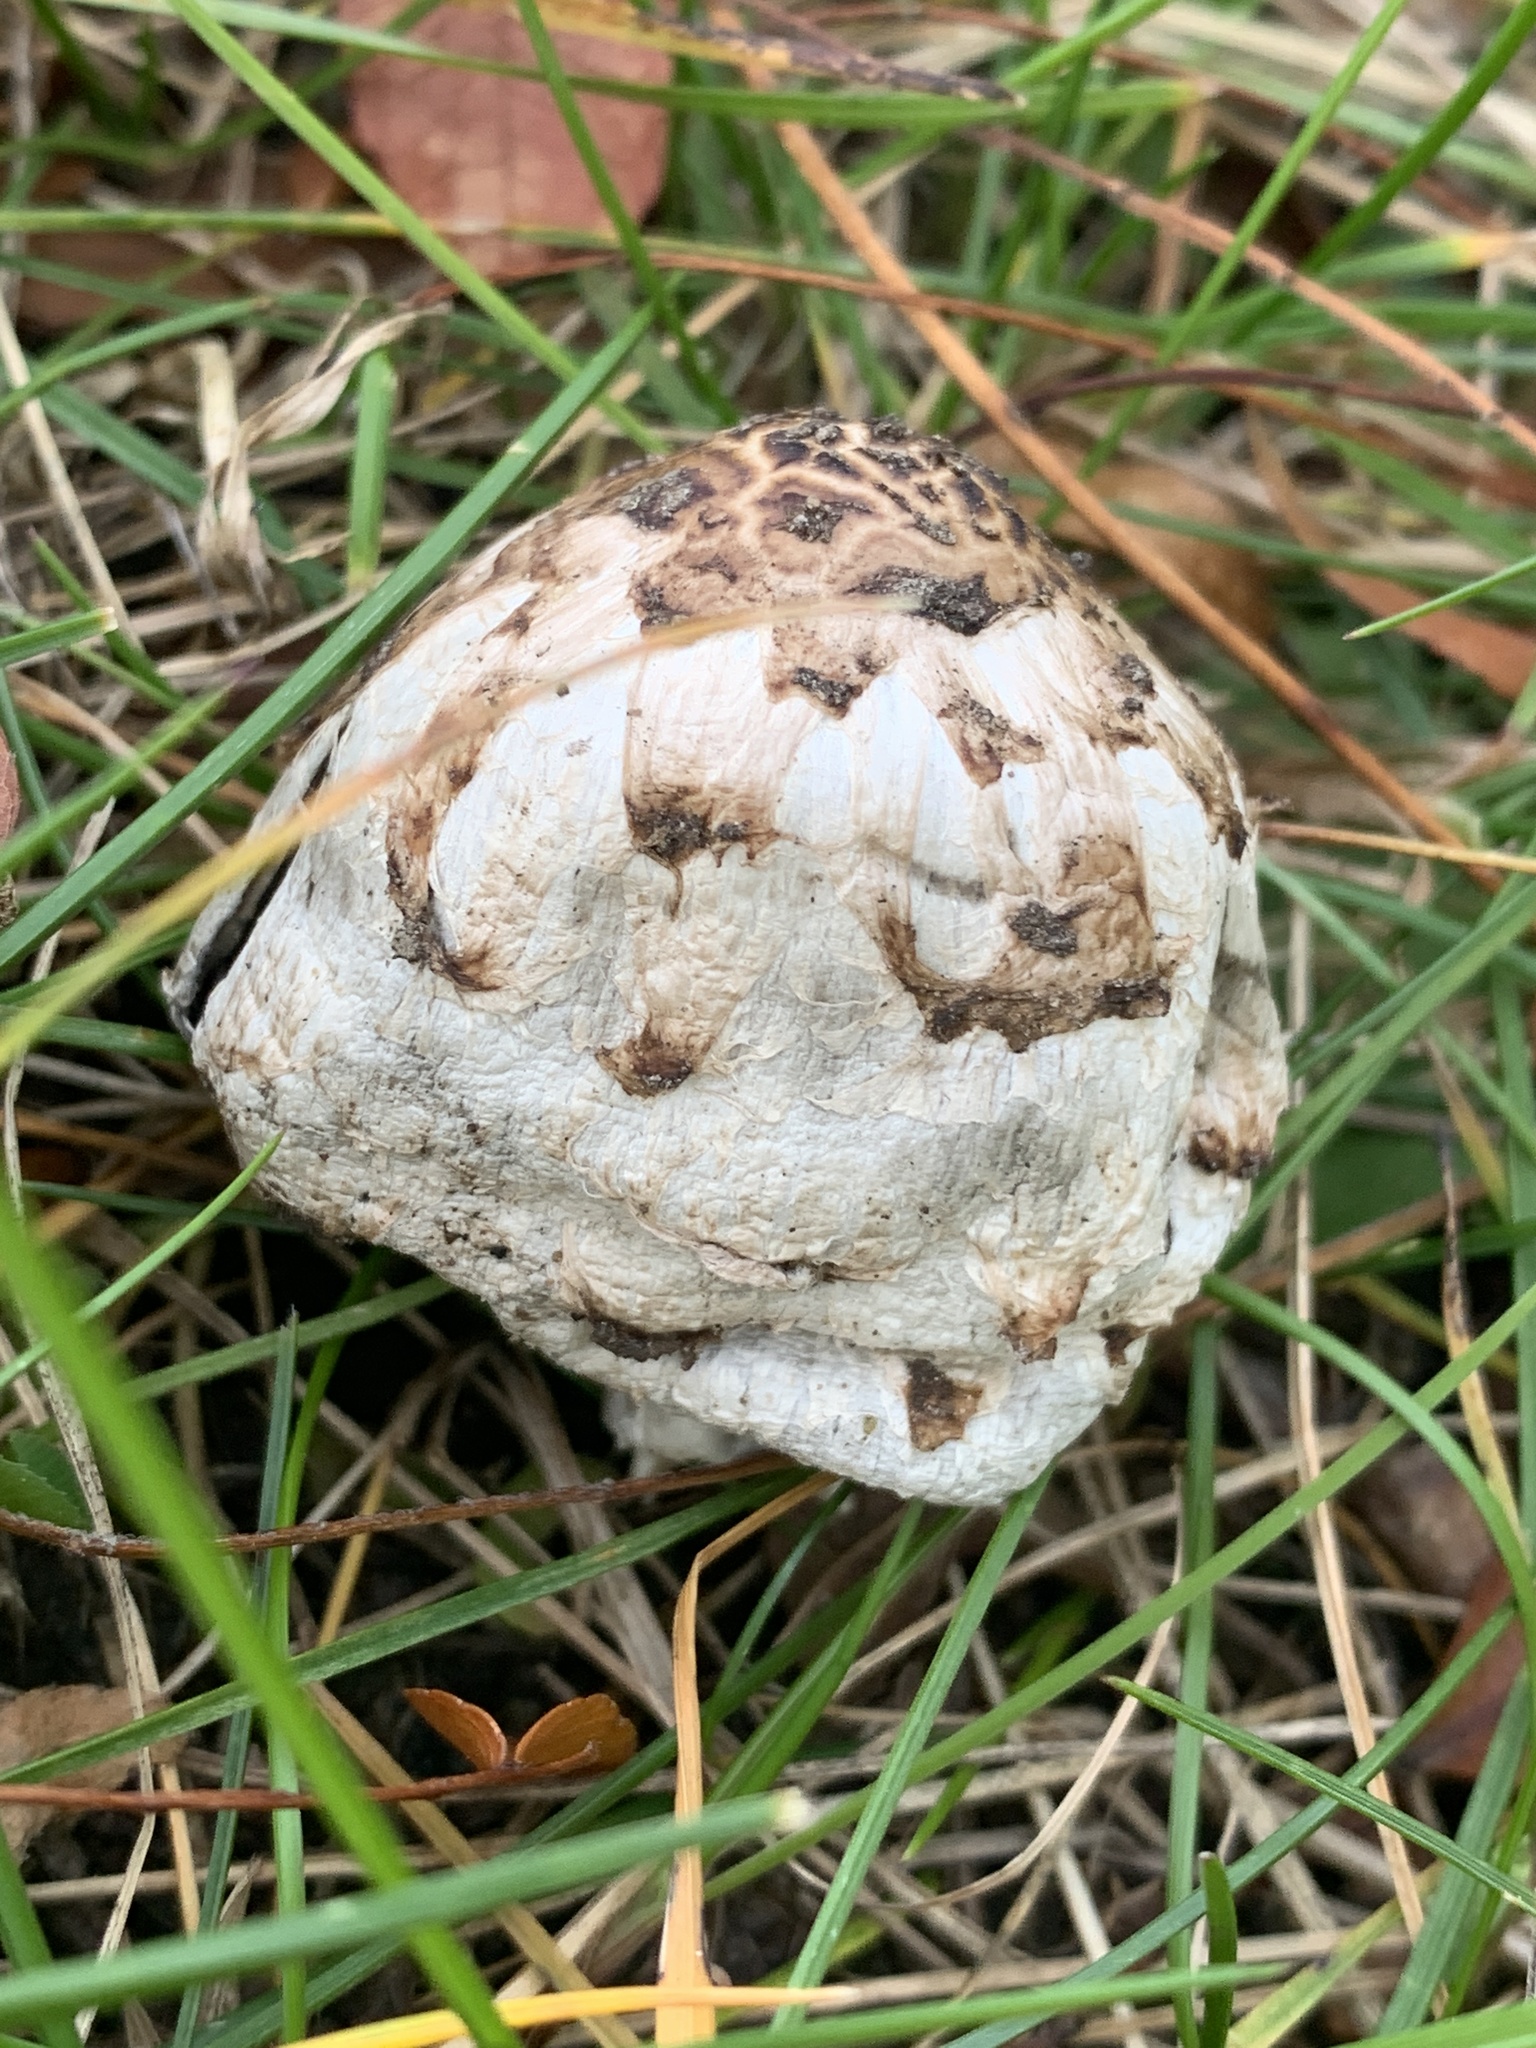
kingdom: Fungi
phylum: Basidiomycota
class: Agaricomycetes
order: Agaricales
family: Agaricaceae
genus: Coprinus
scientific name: Coprinus comatus
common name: Lawyer's wig
